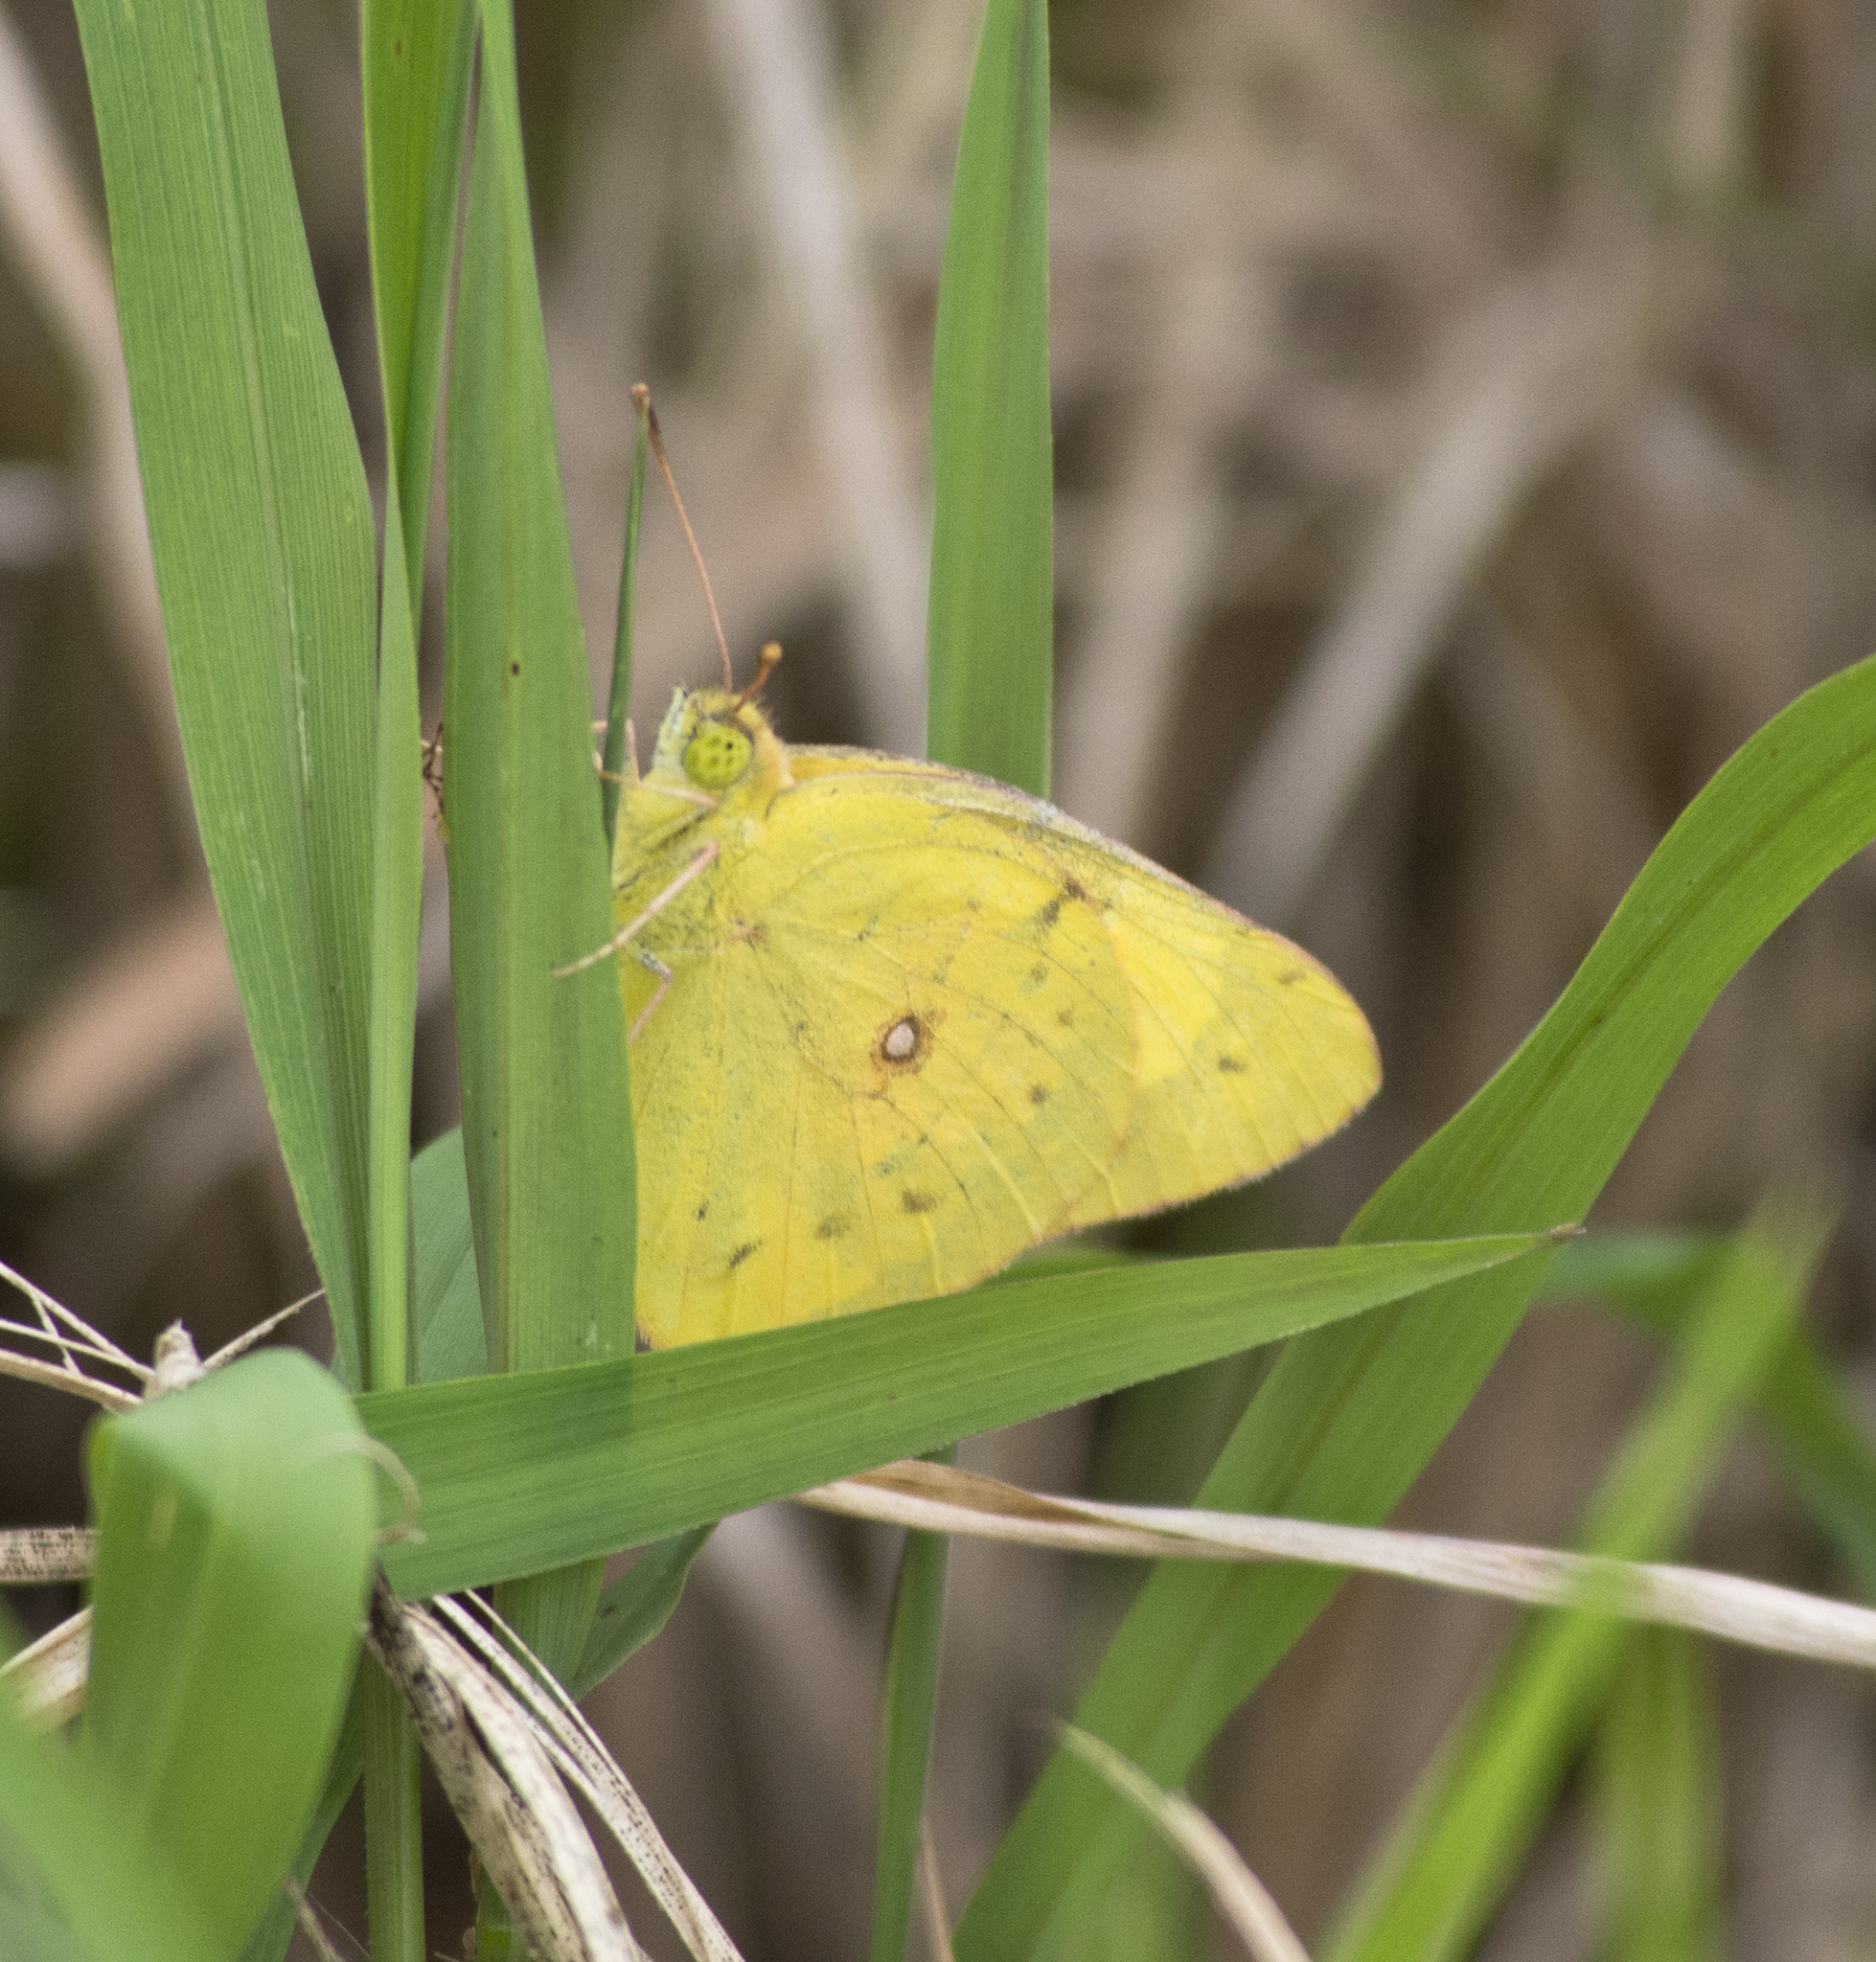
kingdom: Animalia
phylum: Arthropoda
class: Insecta
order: Lepidoptera
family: Pieridae
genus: Colias
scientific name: Colias eurytheme
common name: Alfalfa butterfly
